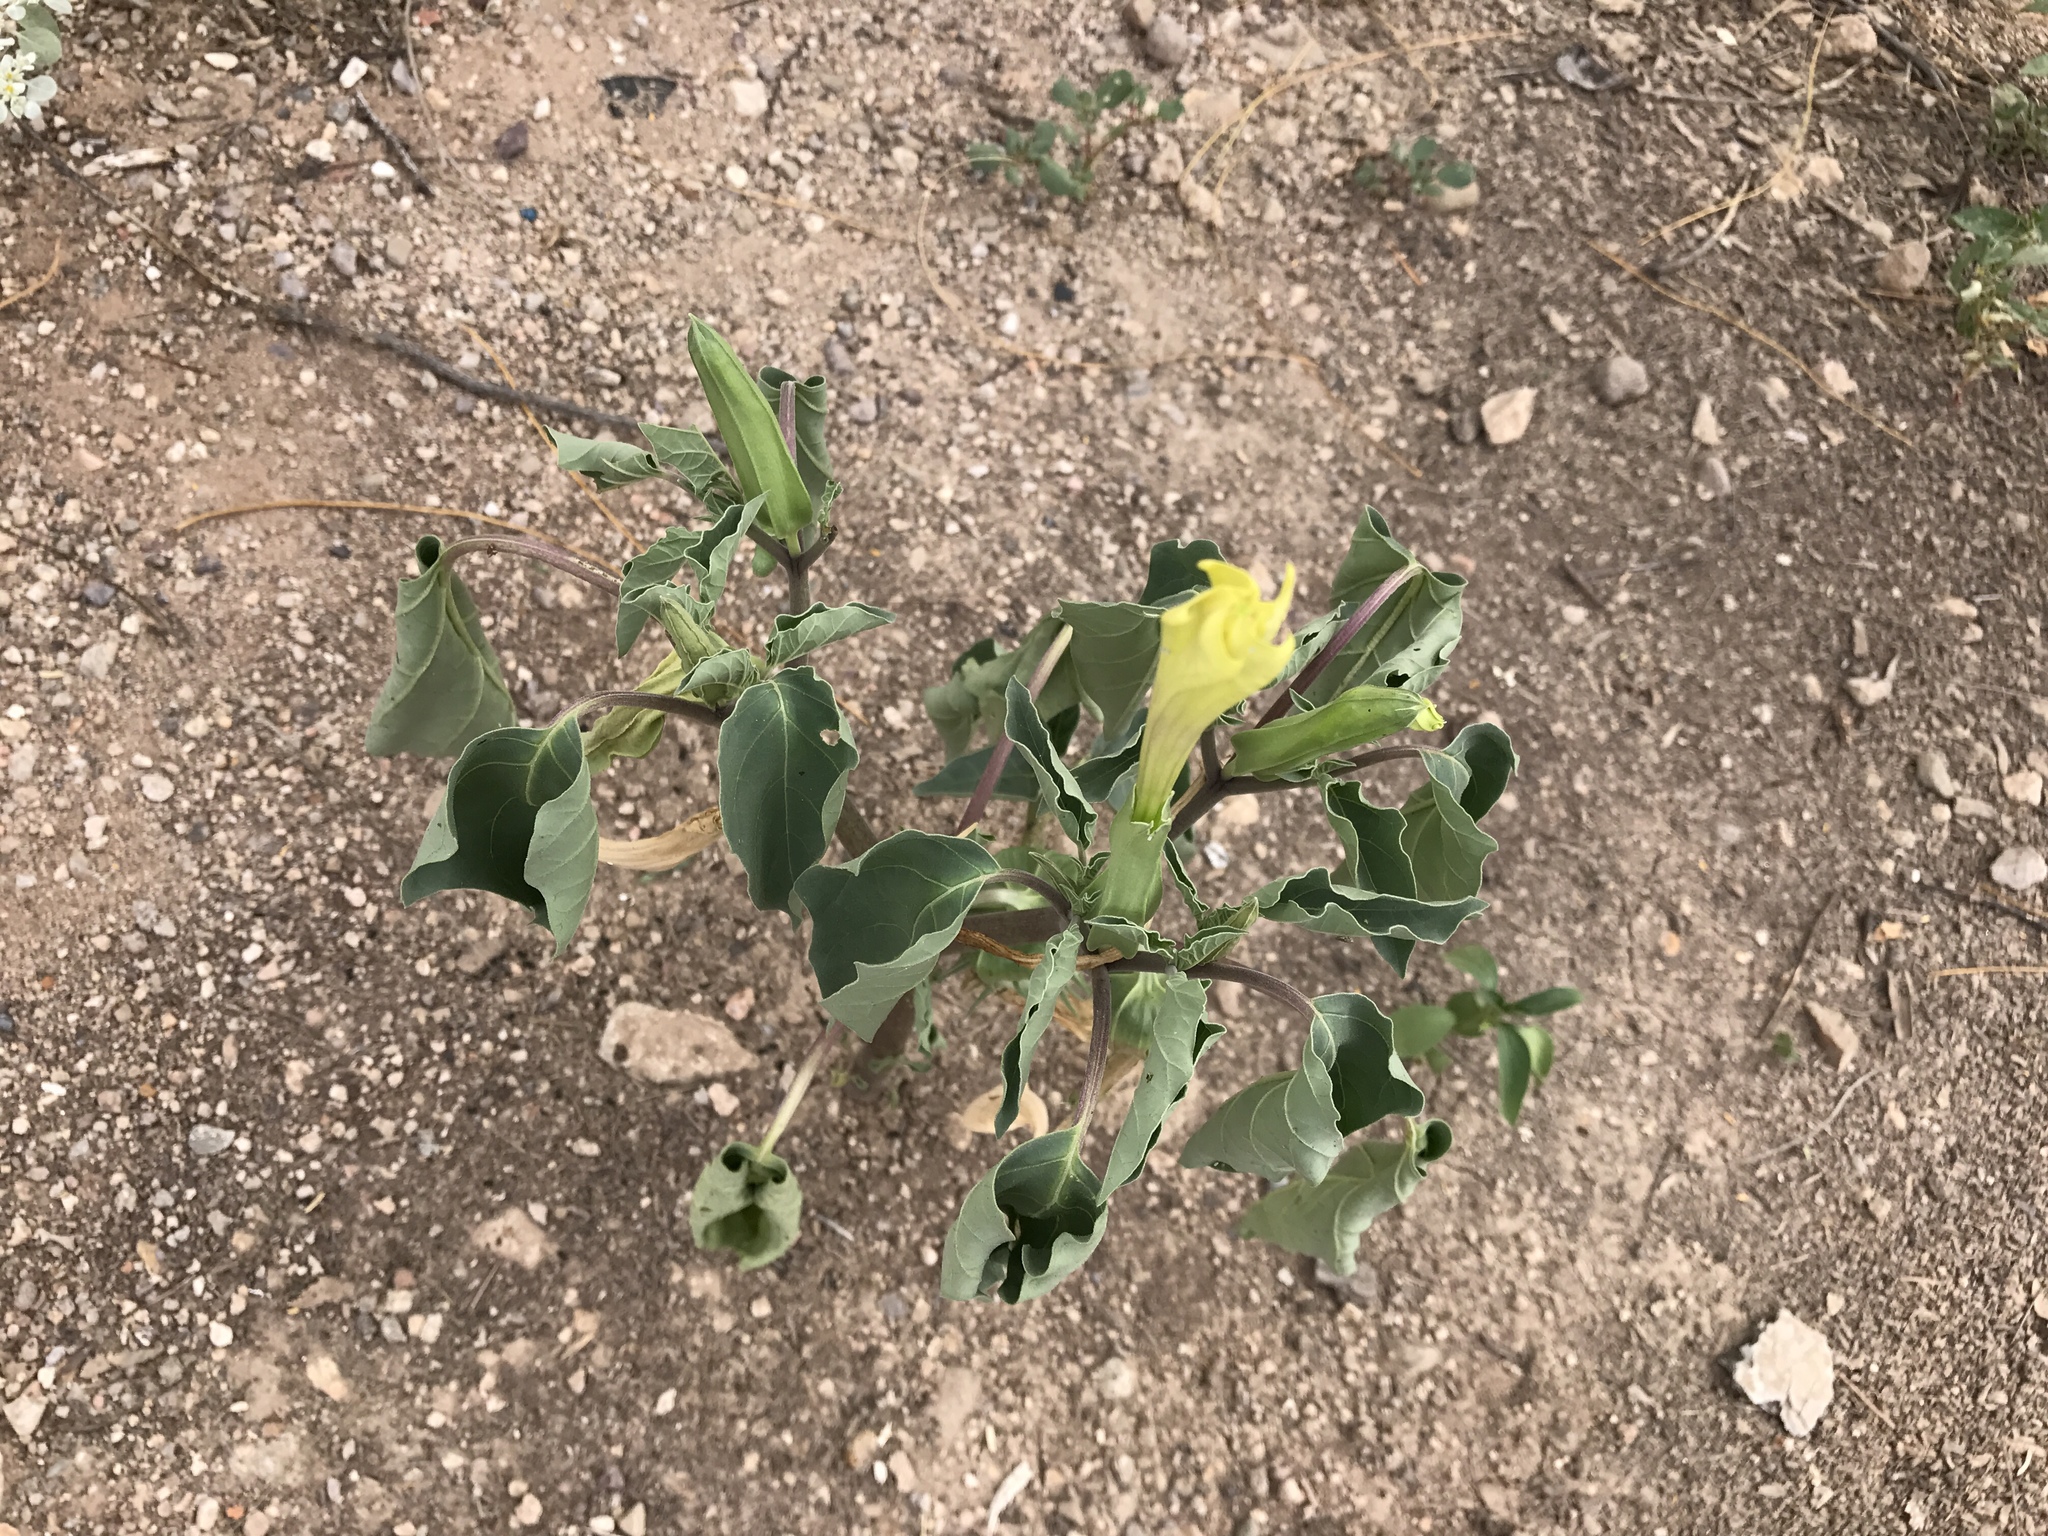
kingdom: Plantae
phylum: Tracheophyta
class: Magnoliopsida
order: Solanales
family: Solanaceae
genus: Datura
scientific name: Datura wrightii
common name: Sacred thorn-apple
